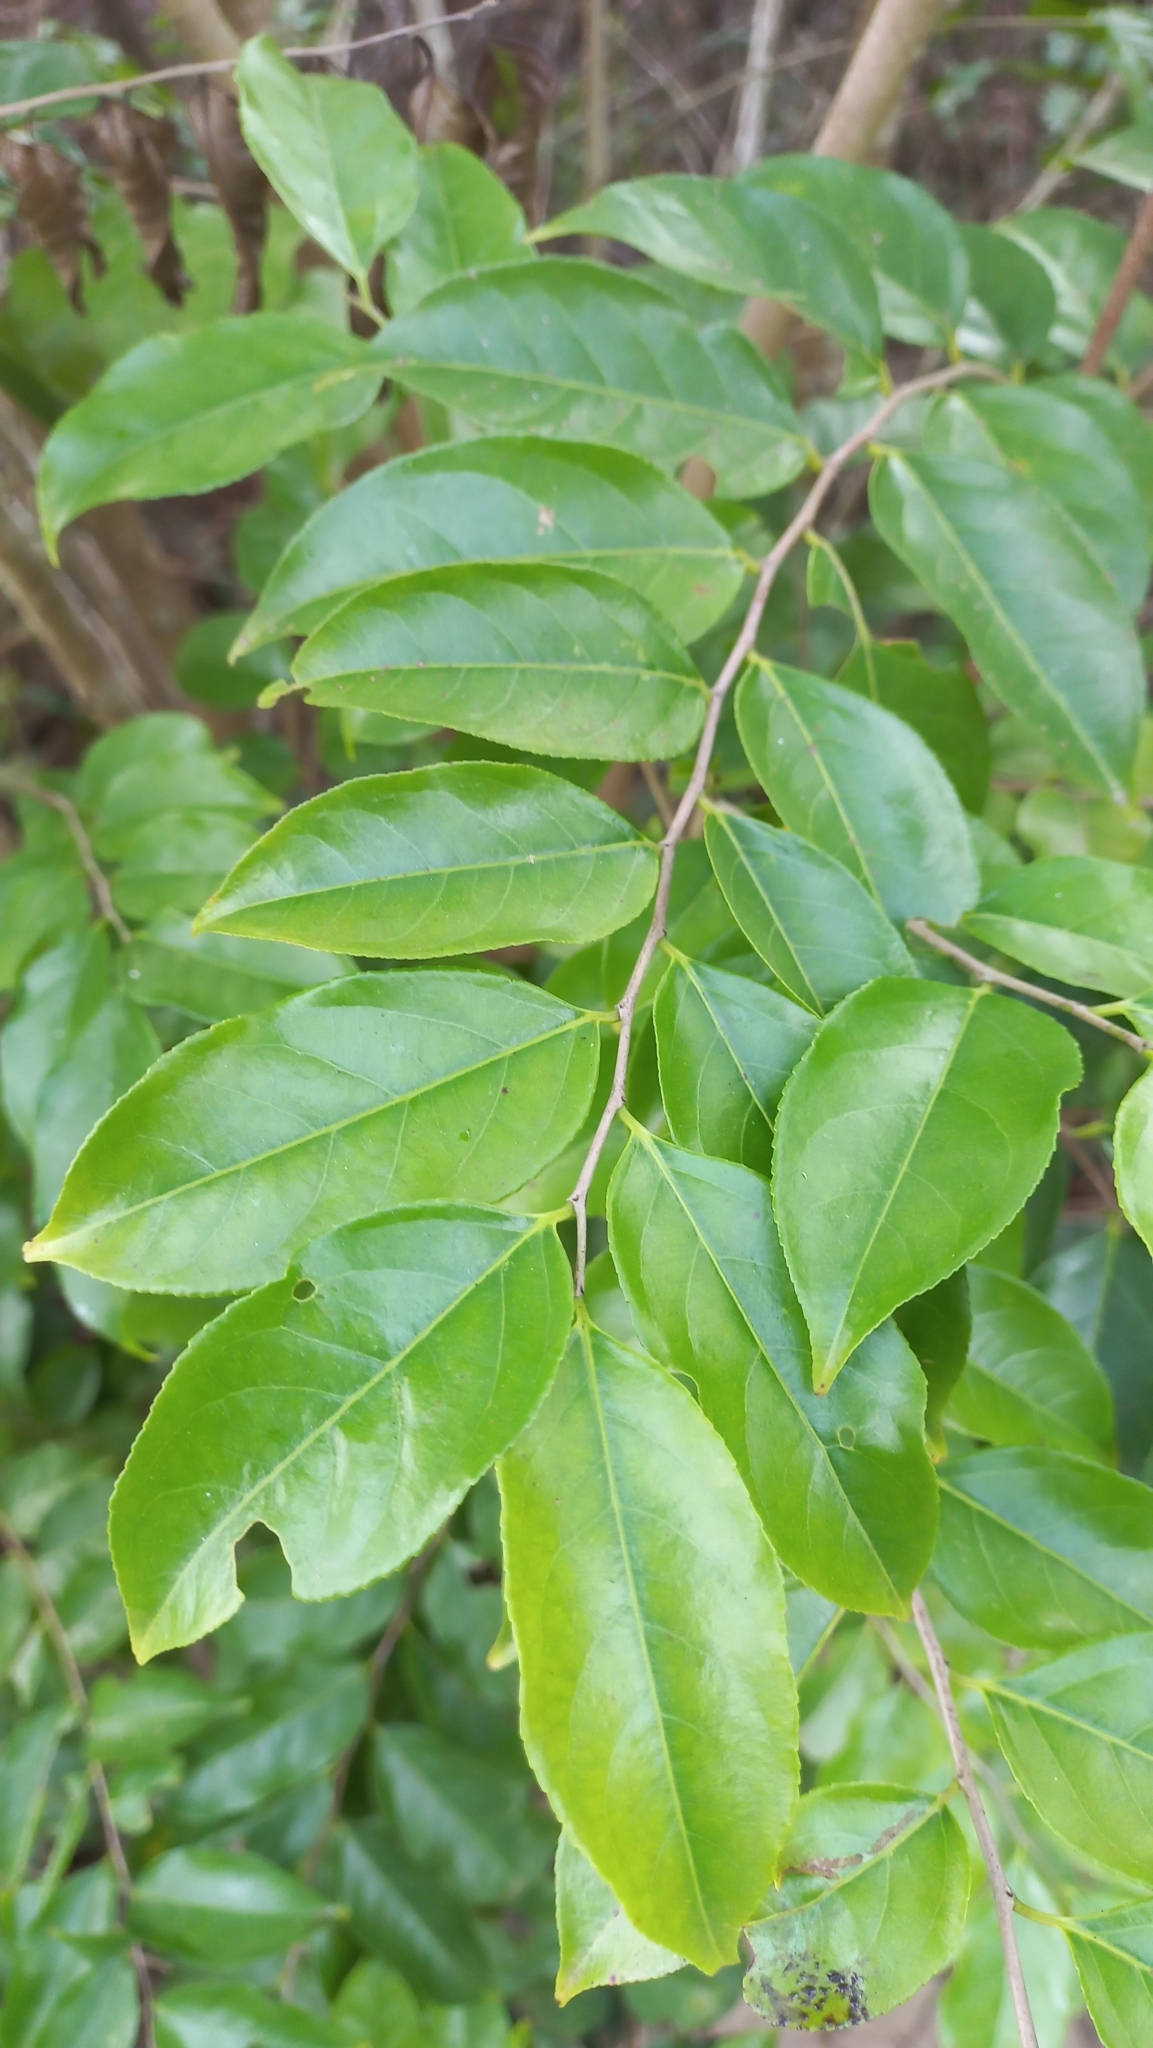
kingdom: Plantae
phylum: Tracheophyta
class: Magnoliopsida
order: Malpighiales
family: Salicaceae
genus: Casearia
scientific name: Casearia sylvestris
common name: Wild sage
